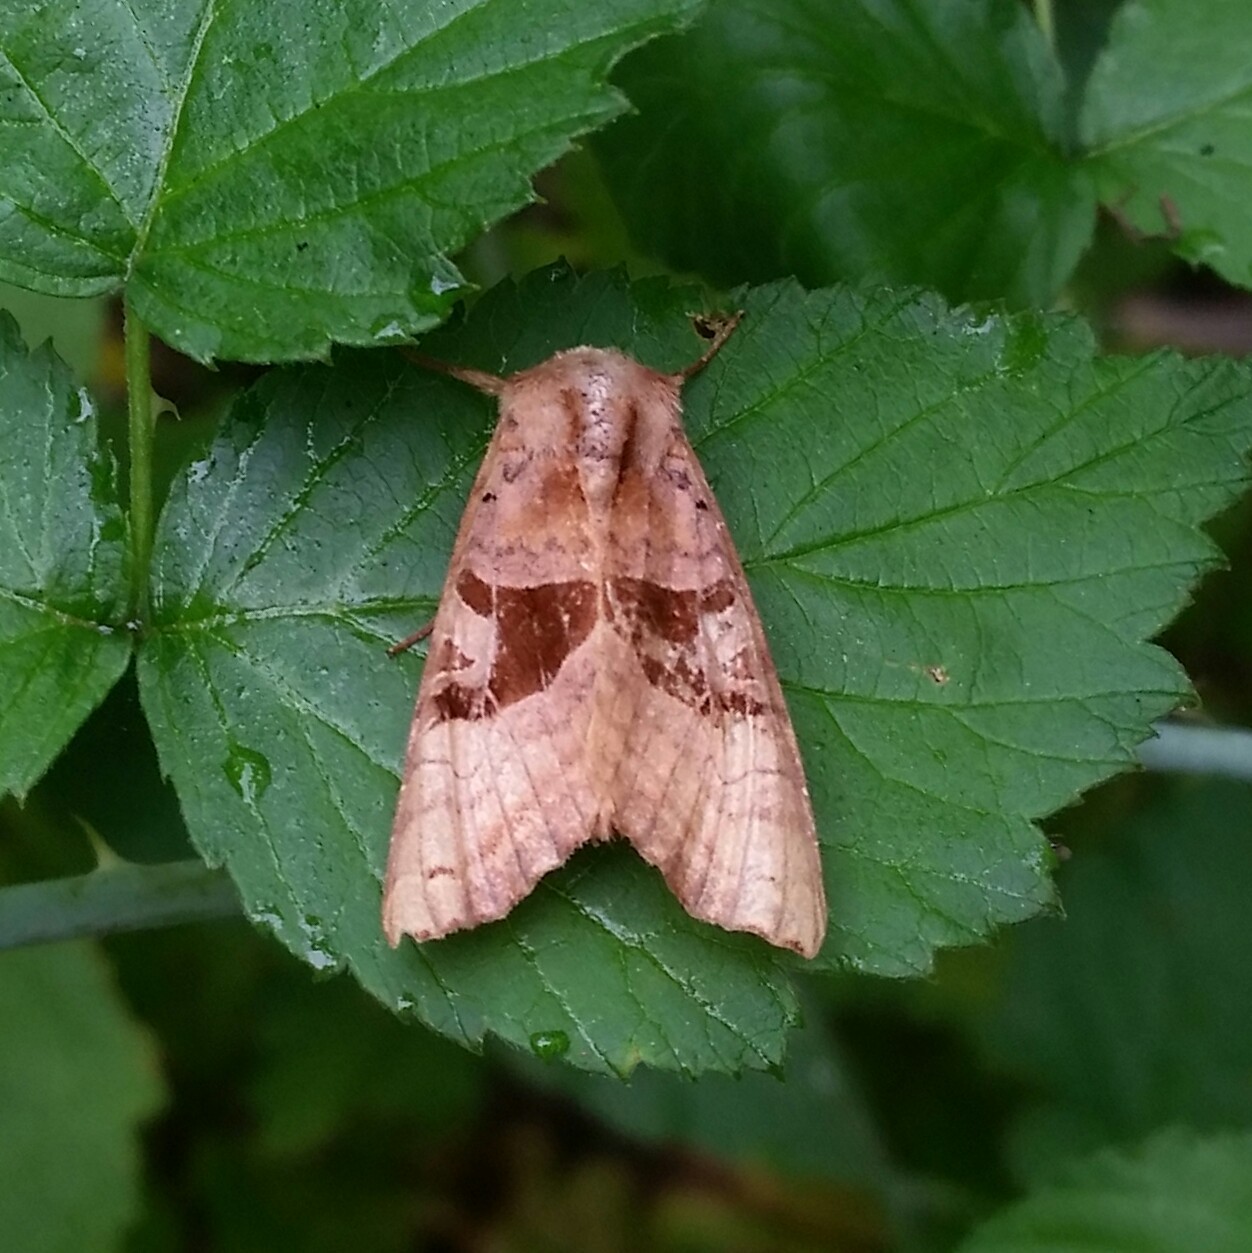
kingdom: Animalia
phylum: Arthropoda
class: Insecta
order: Lepidoptera
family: Noctuidae
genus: Phlogophora
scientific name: Phlogophora periculosa
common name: Brown angle shades
